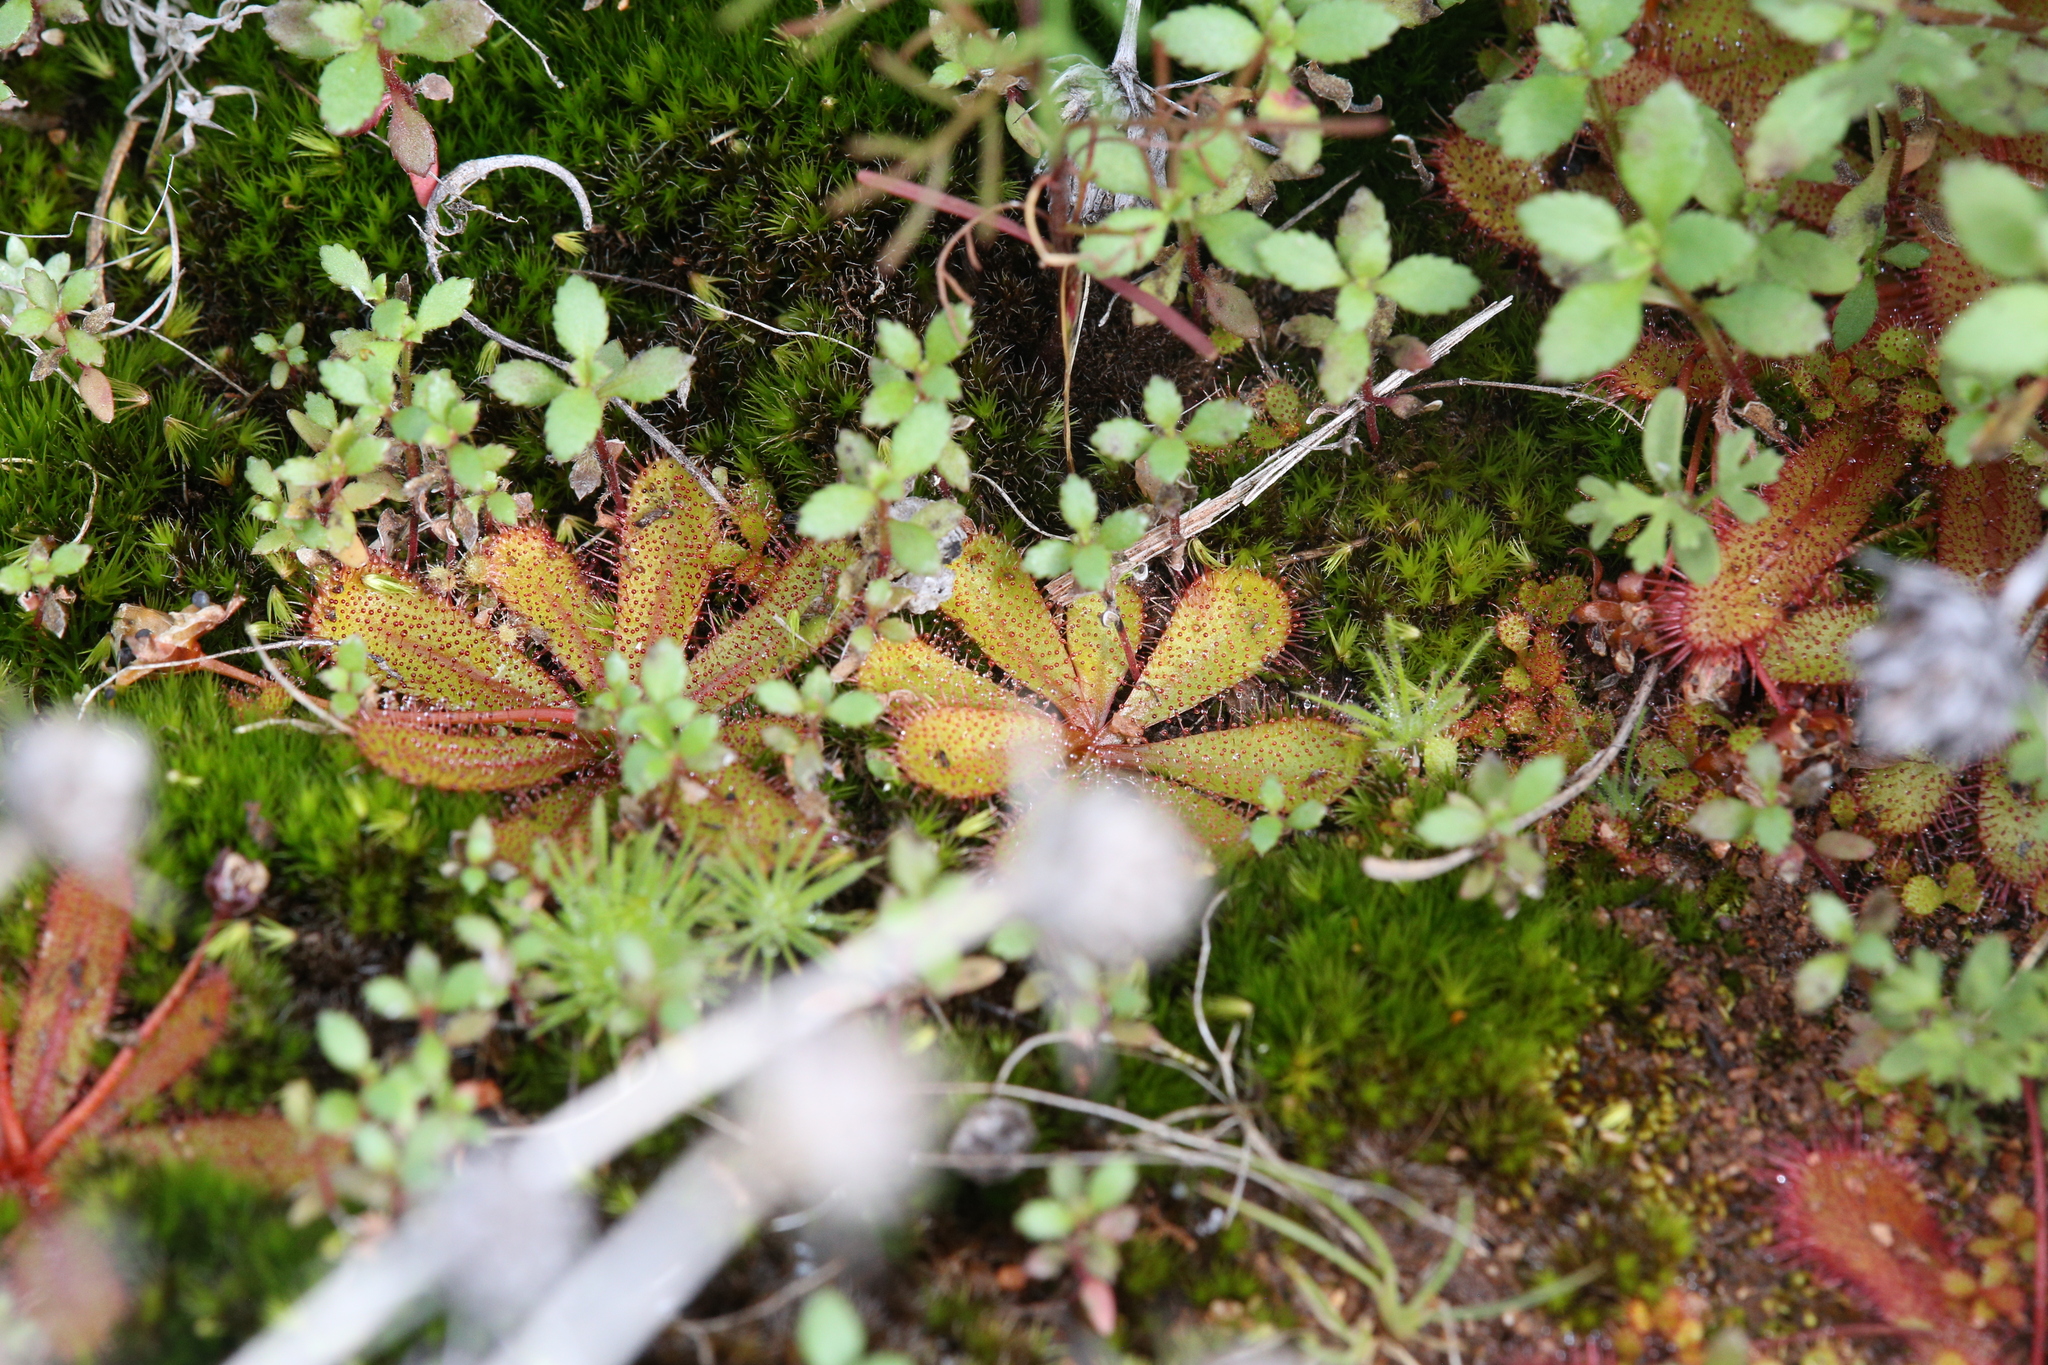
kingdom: Plantae
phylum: Tracheophyta
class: Magnoliopsida
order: Caryophyllales
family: Droseraceae
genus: Drosera
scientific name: Drosera bulbosa
